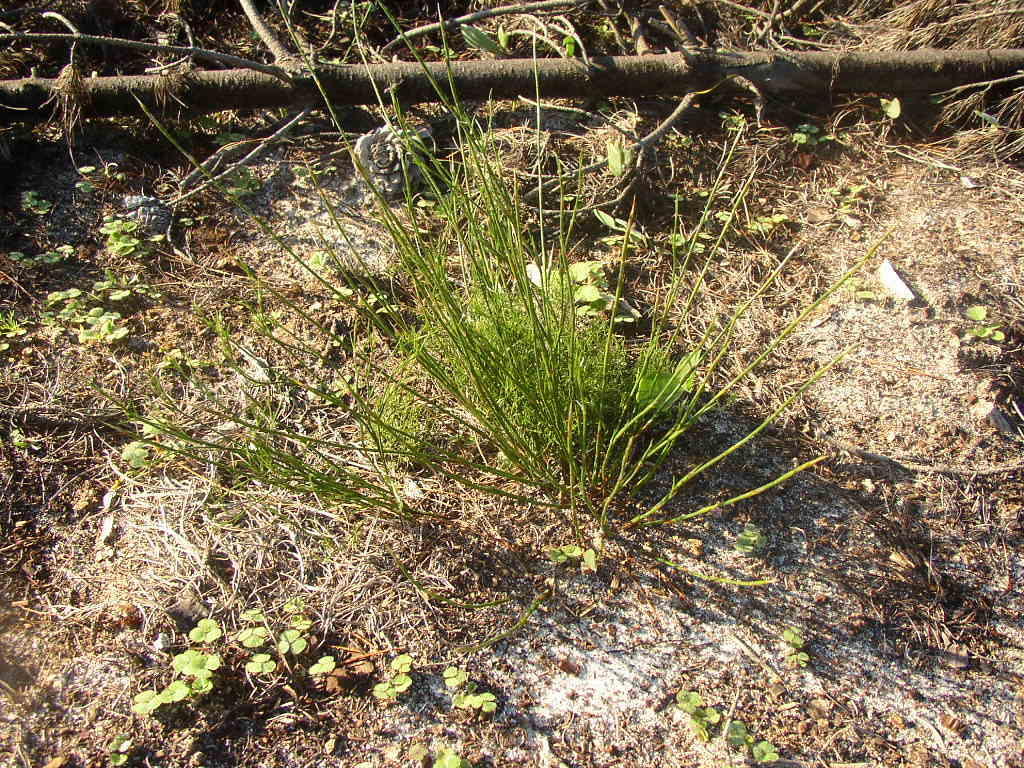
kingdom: Plantae
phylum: Tracheophyta
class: Liliopsida
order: Poales
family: Restionaceae
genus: Restio
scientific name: Restio capensis
